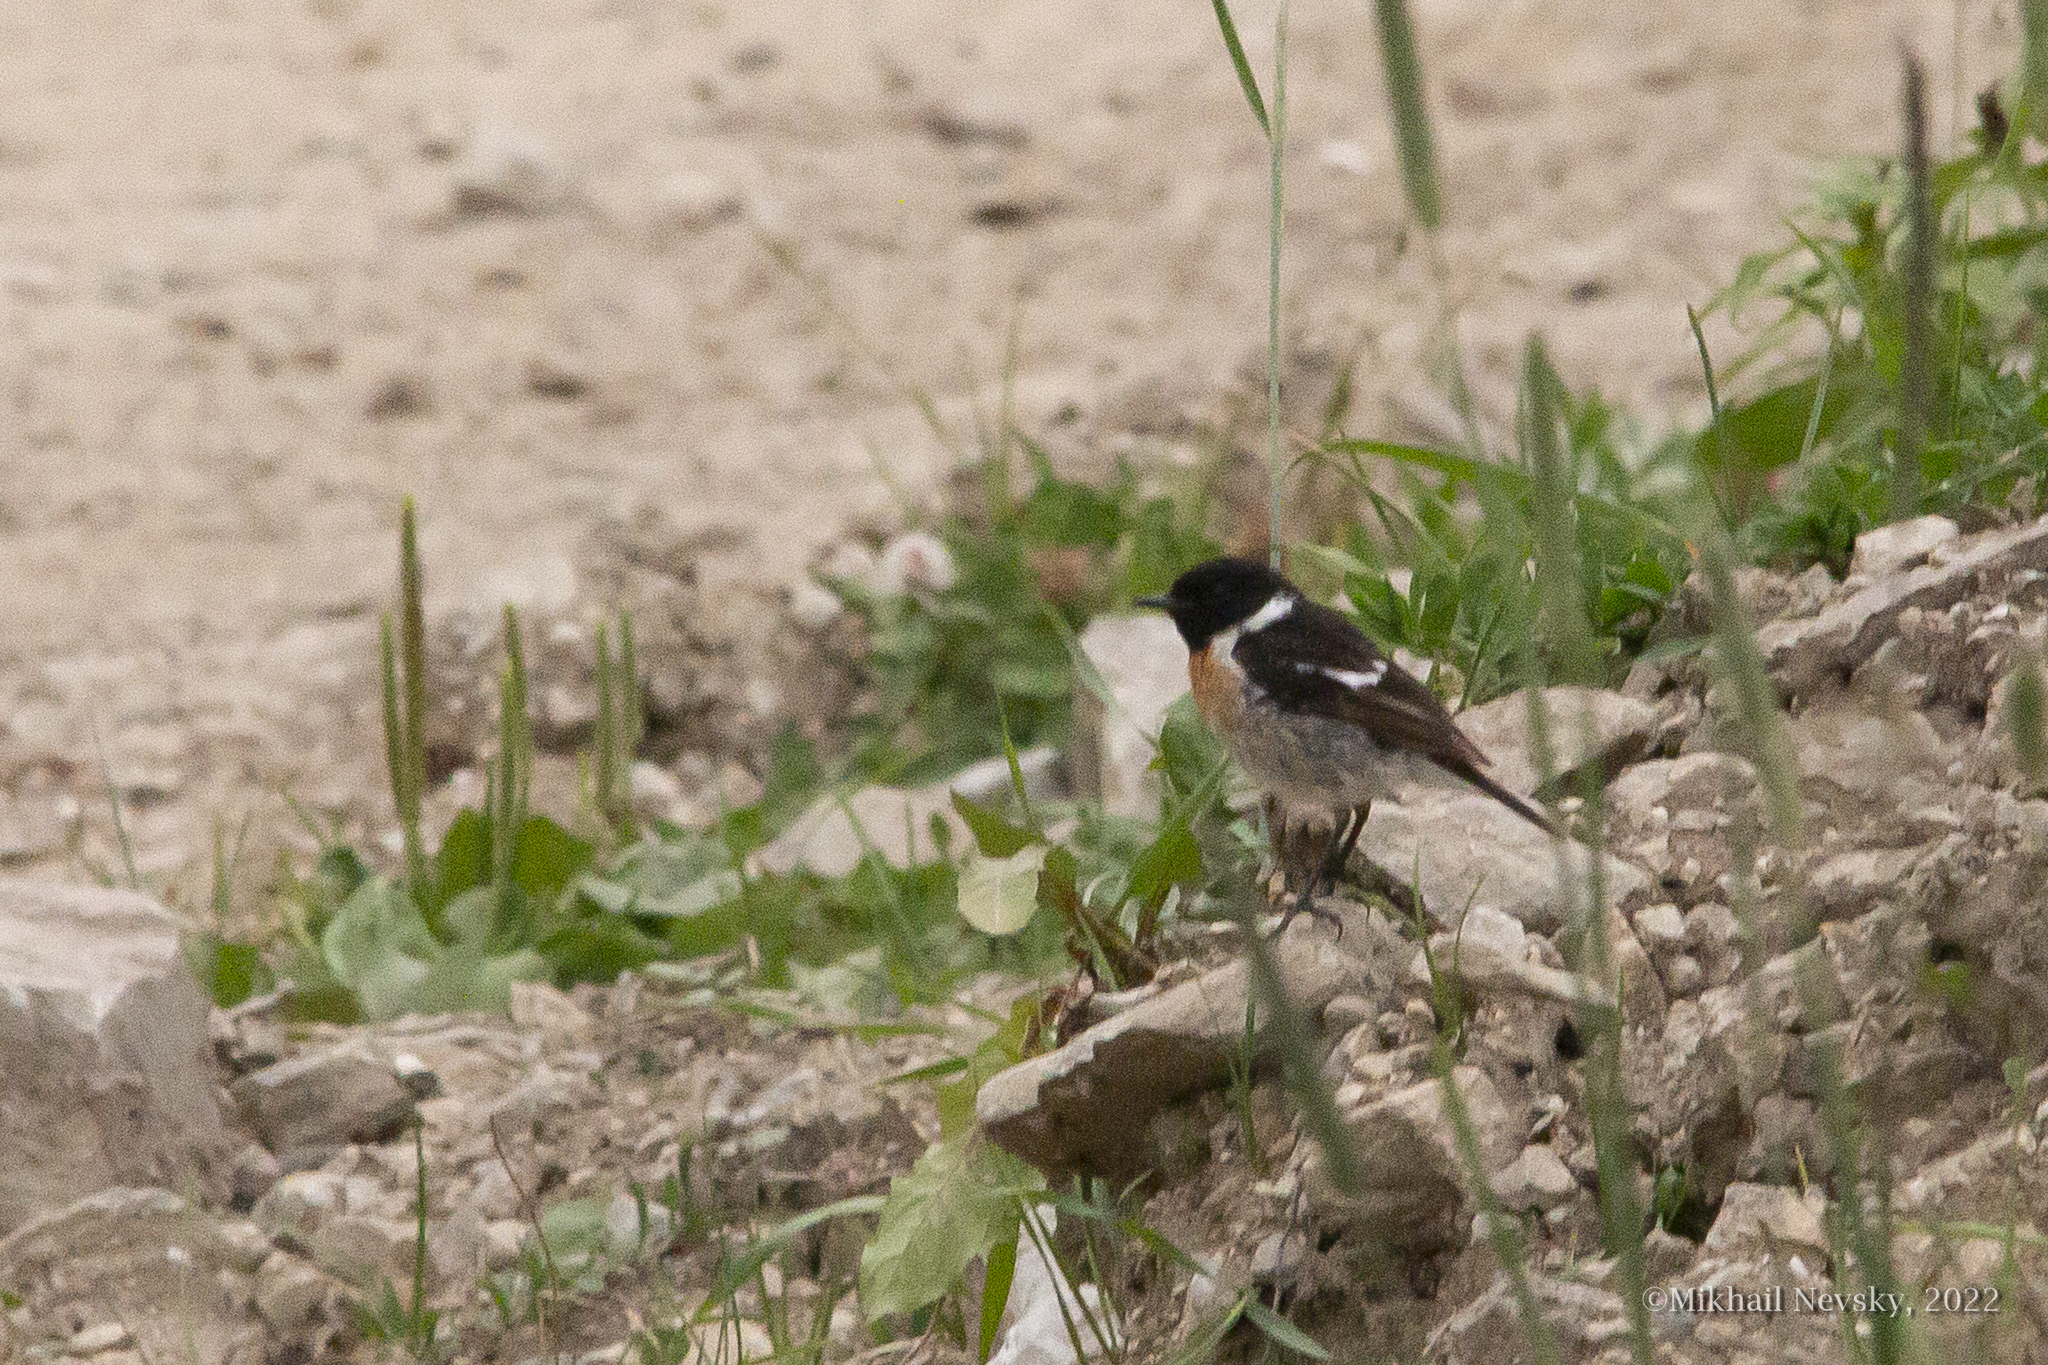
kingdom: Animalia
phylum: Chordata
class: Aves
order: Passeriformes
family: Muscicapidae
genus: Saxicola
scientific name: Saxicola rubicola
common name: European stonechat
